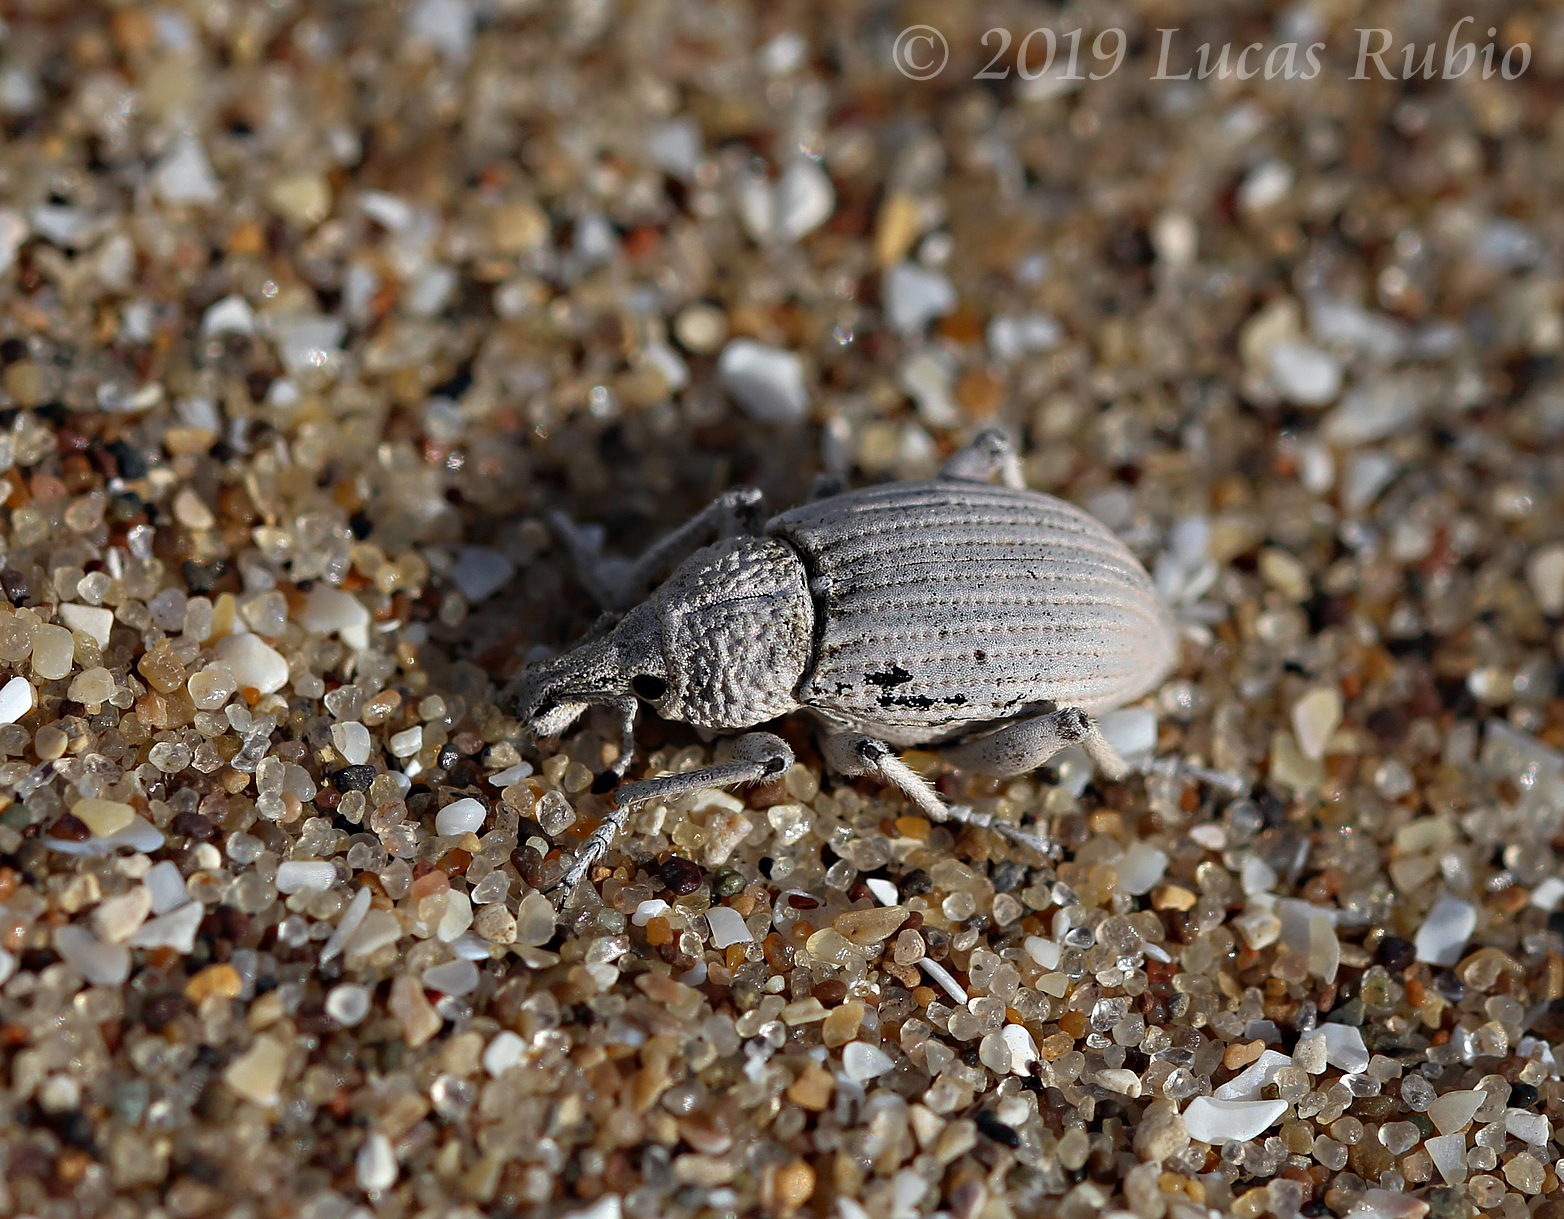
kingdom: Animalia
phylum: Arthropoda
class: Insecta
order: Coleoptera
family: Curculionidae
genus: Opseotapinotus
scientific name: Opseotapinotus fricabilis
